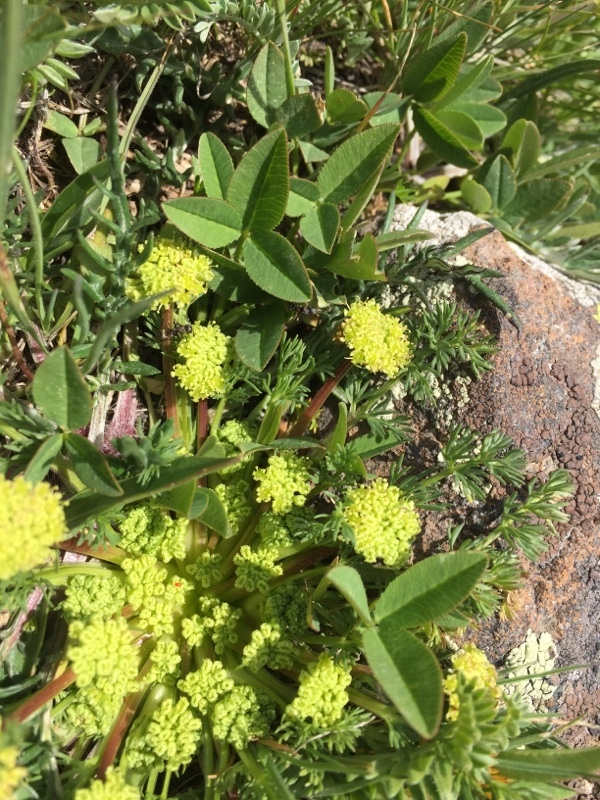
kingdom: Plantae
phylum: Tracheophyta
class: Magnoliopsida
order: Apiales
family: Apiaceae
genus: Chamaesciadium
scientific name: Chamaesciadium acaule
